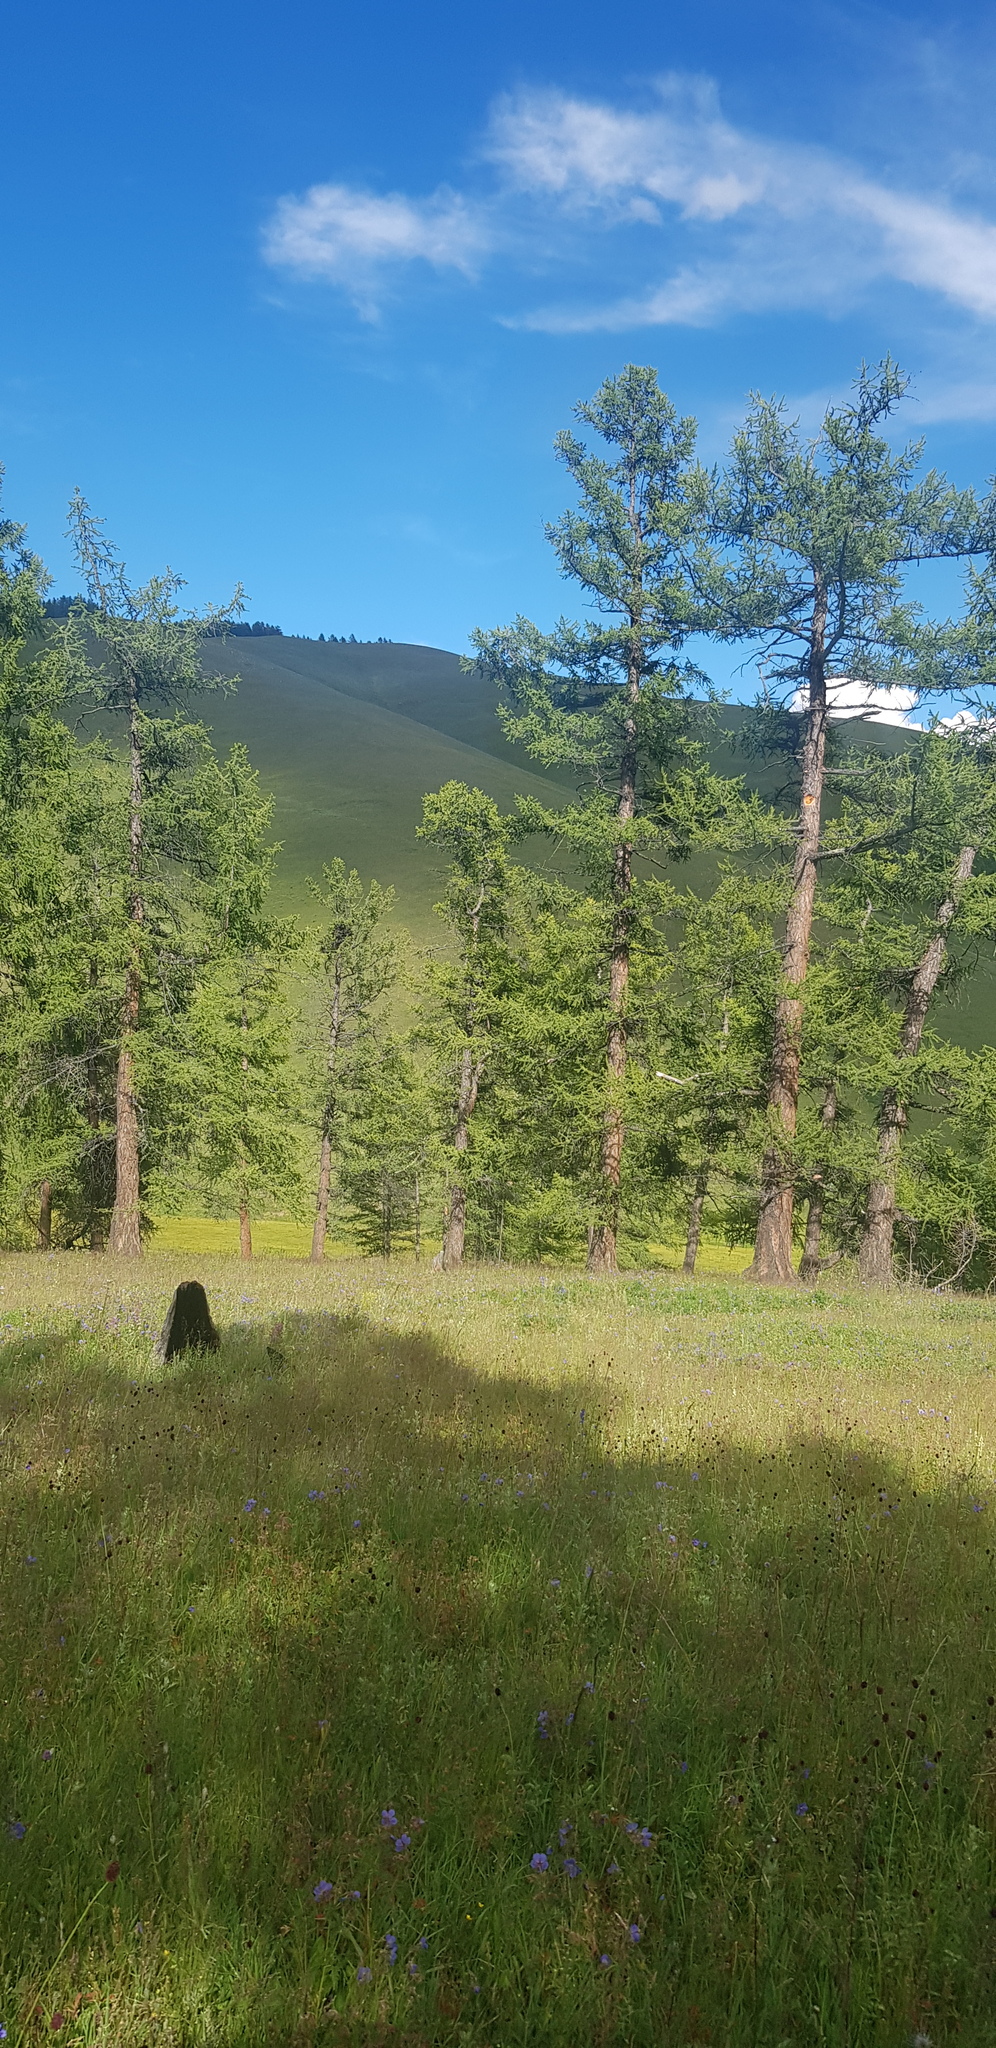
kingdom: Plantae
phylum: Tracheophyta
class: Pinopsida
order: Pinales
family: Pinaceae
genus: Larix
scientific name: Larix sibirica
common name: Siberian larch
